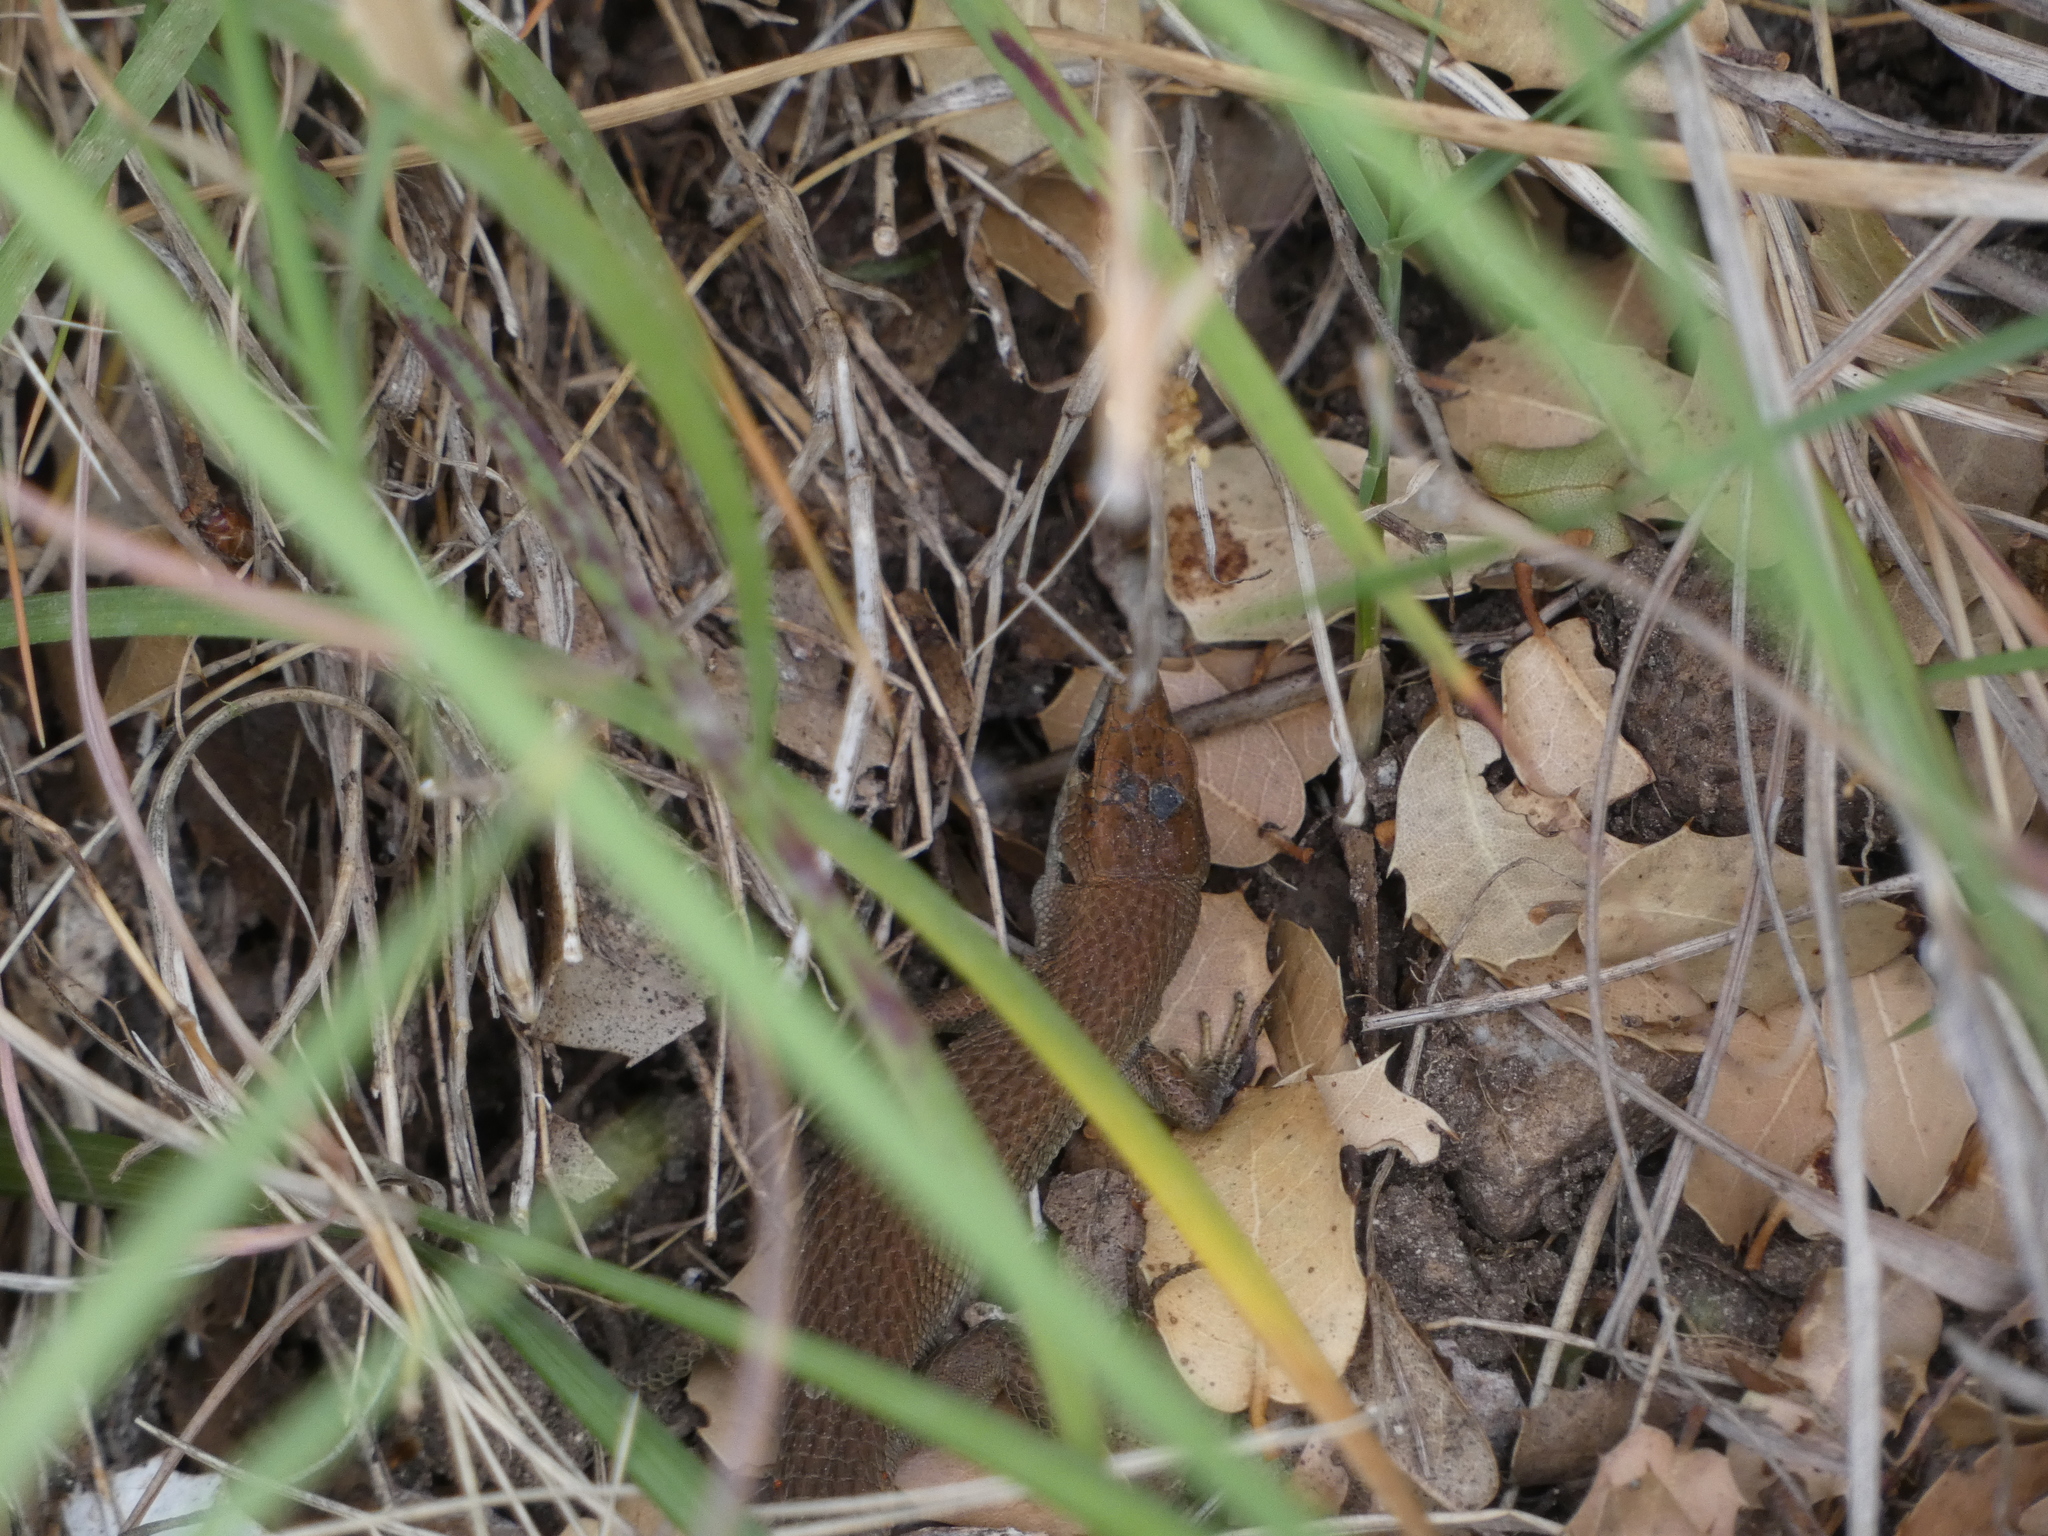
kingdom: Animalia
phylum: Chordata
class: Squamata
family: Lacertidae
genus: Algyroides
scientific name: Algyroides moreoticus
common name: Greek algyroides
